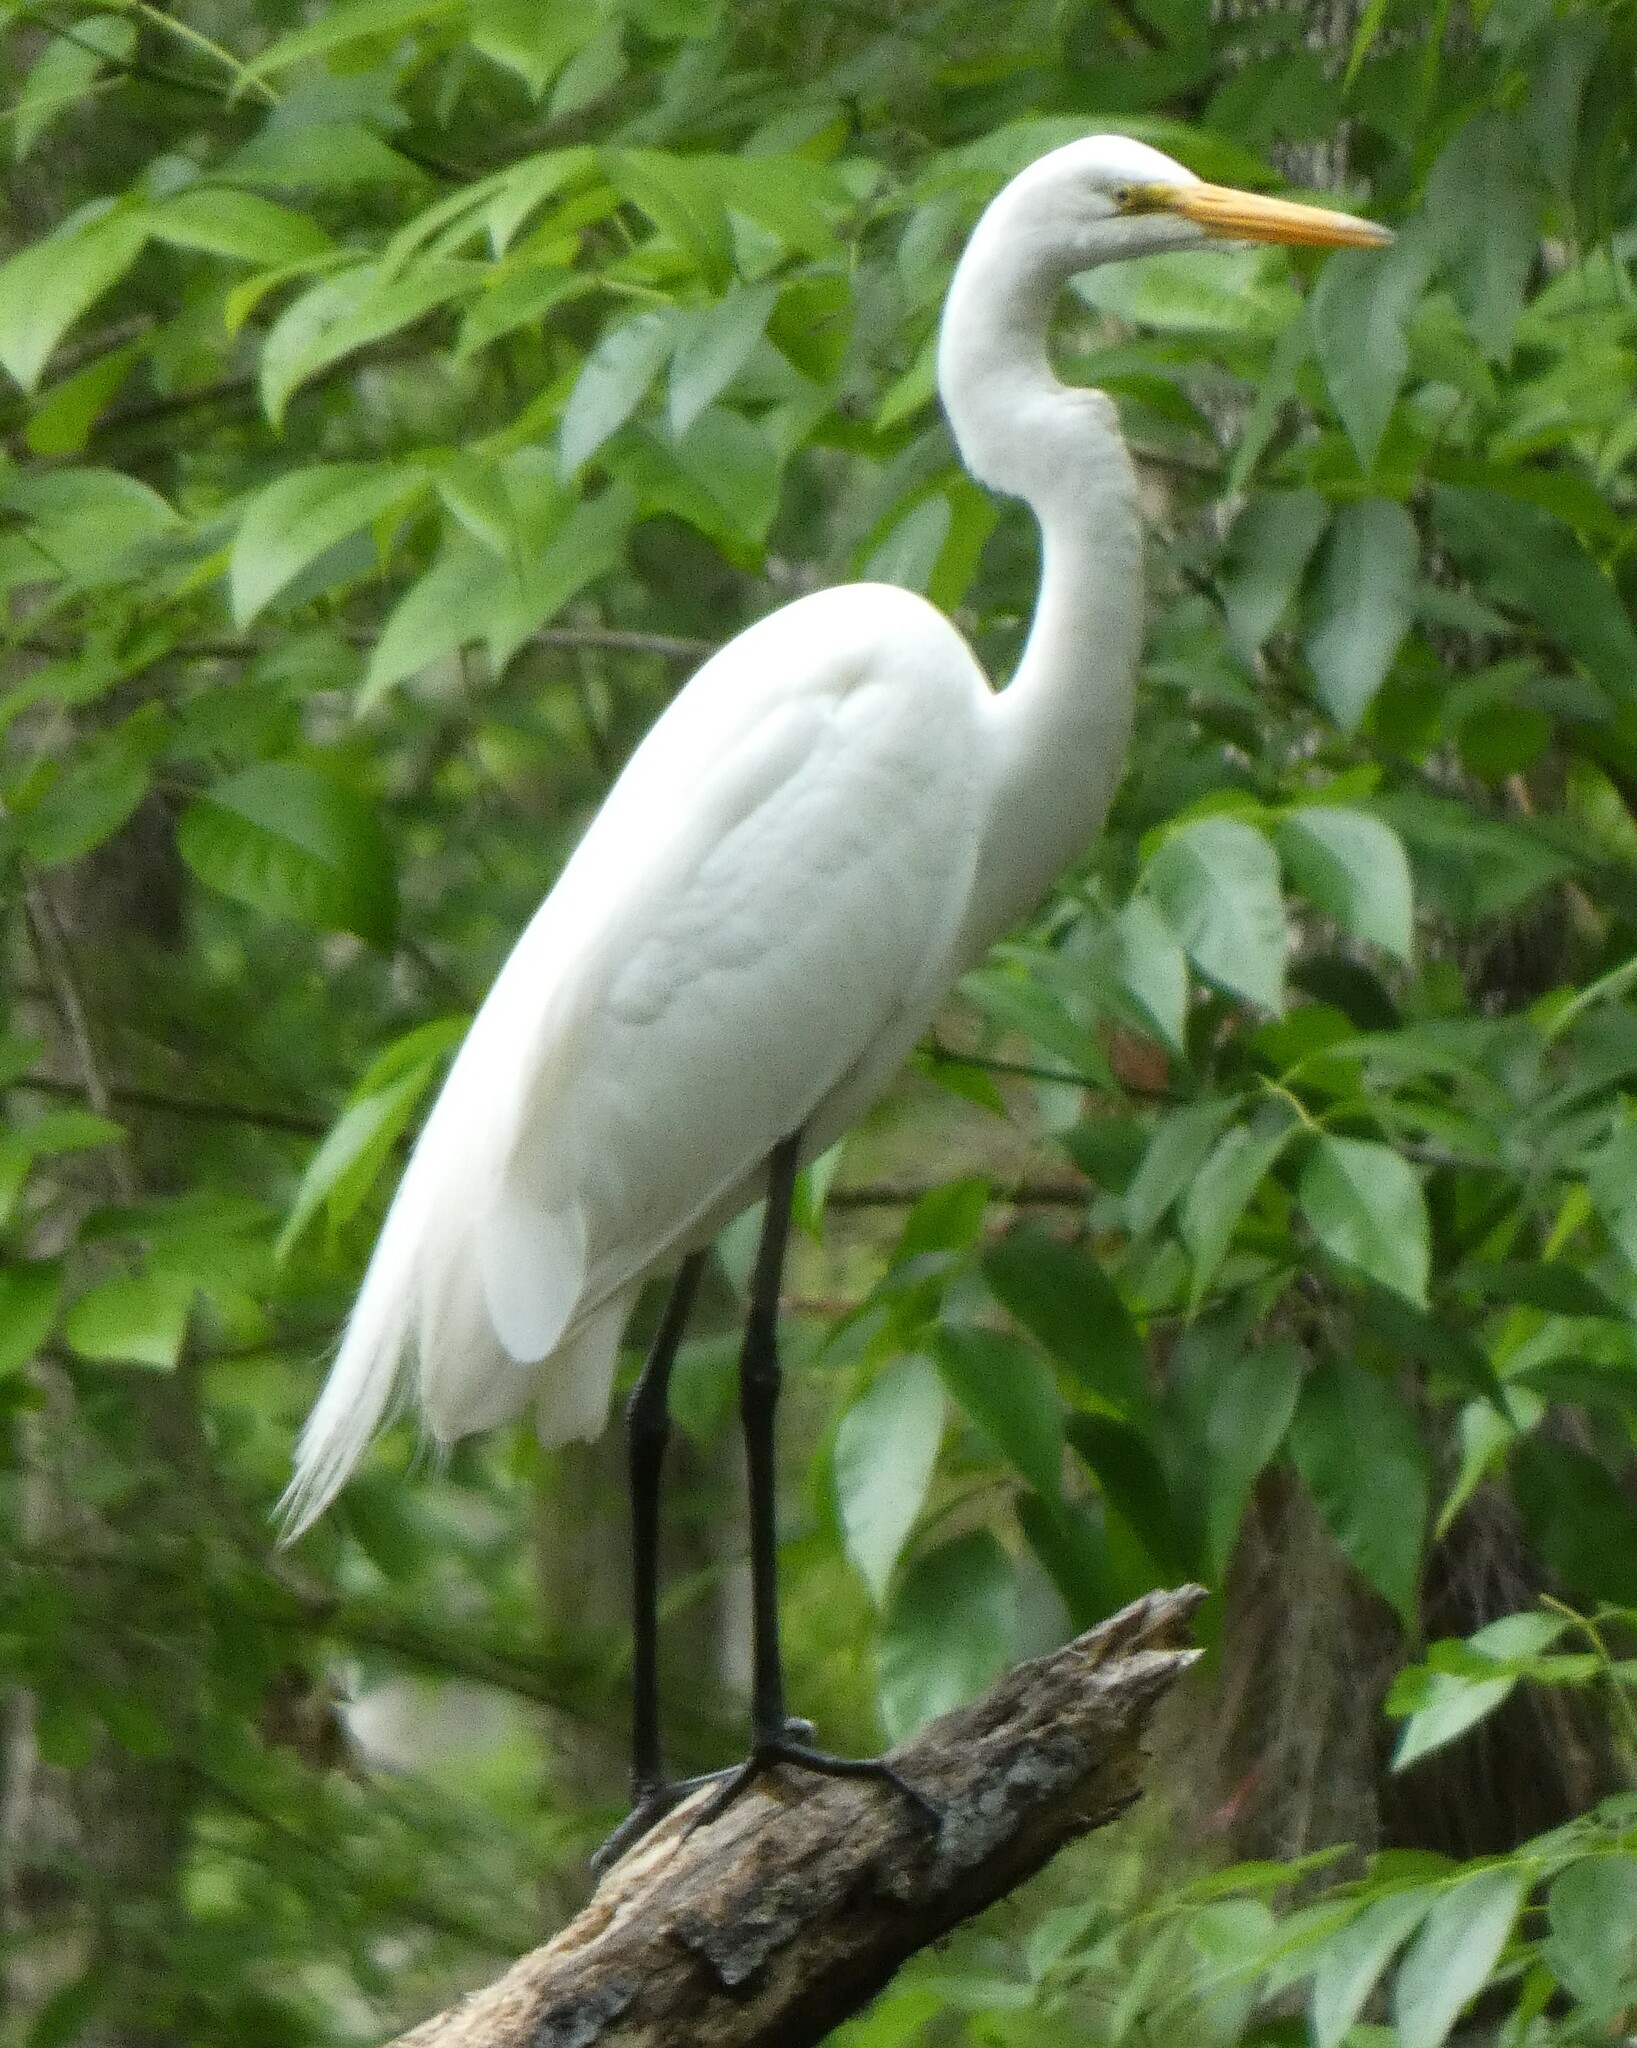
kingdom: Animalia
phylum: Chordata
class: Aves
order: Pelecaniformes
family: Ardeidae
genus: Ardea
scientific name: Ardea alba
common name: Great egret
